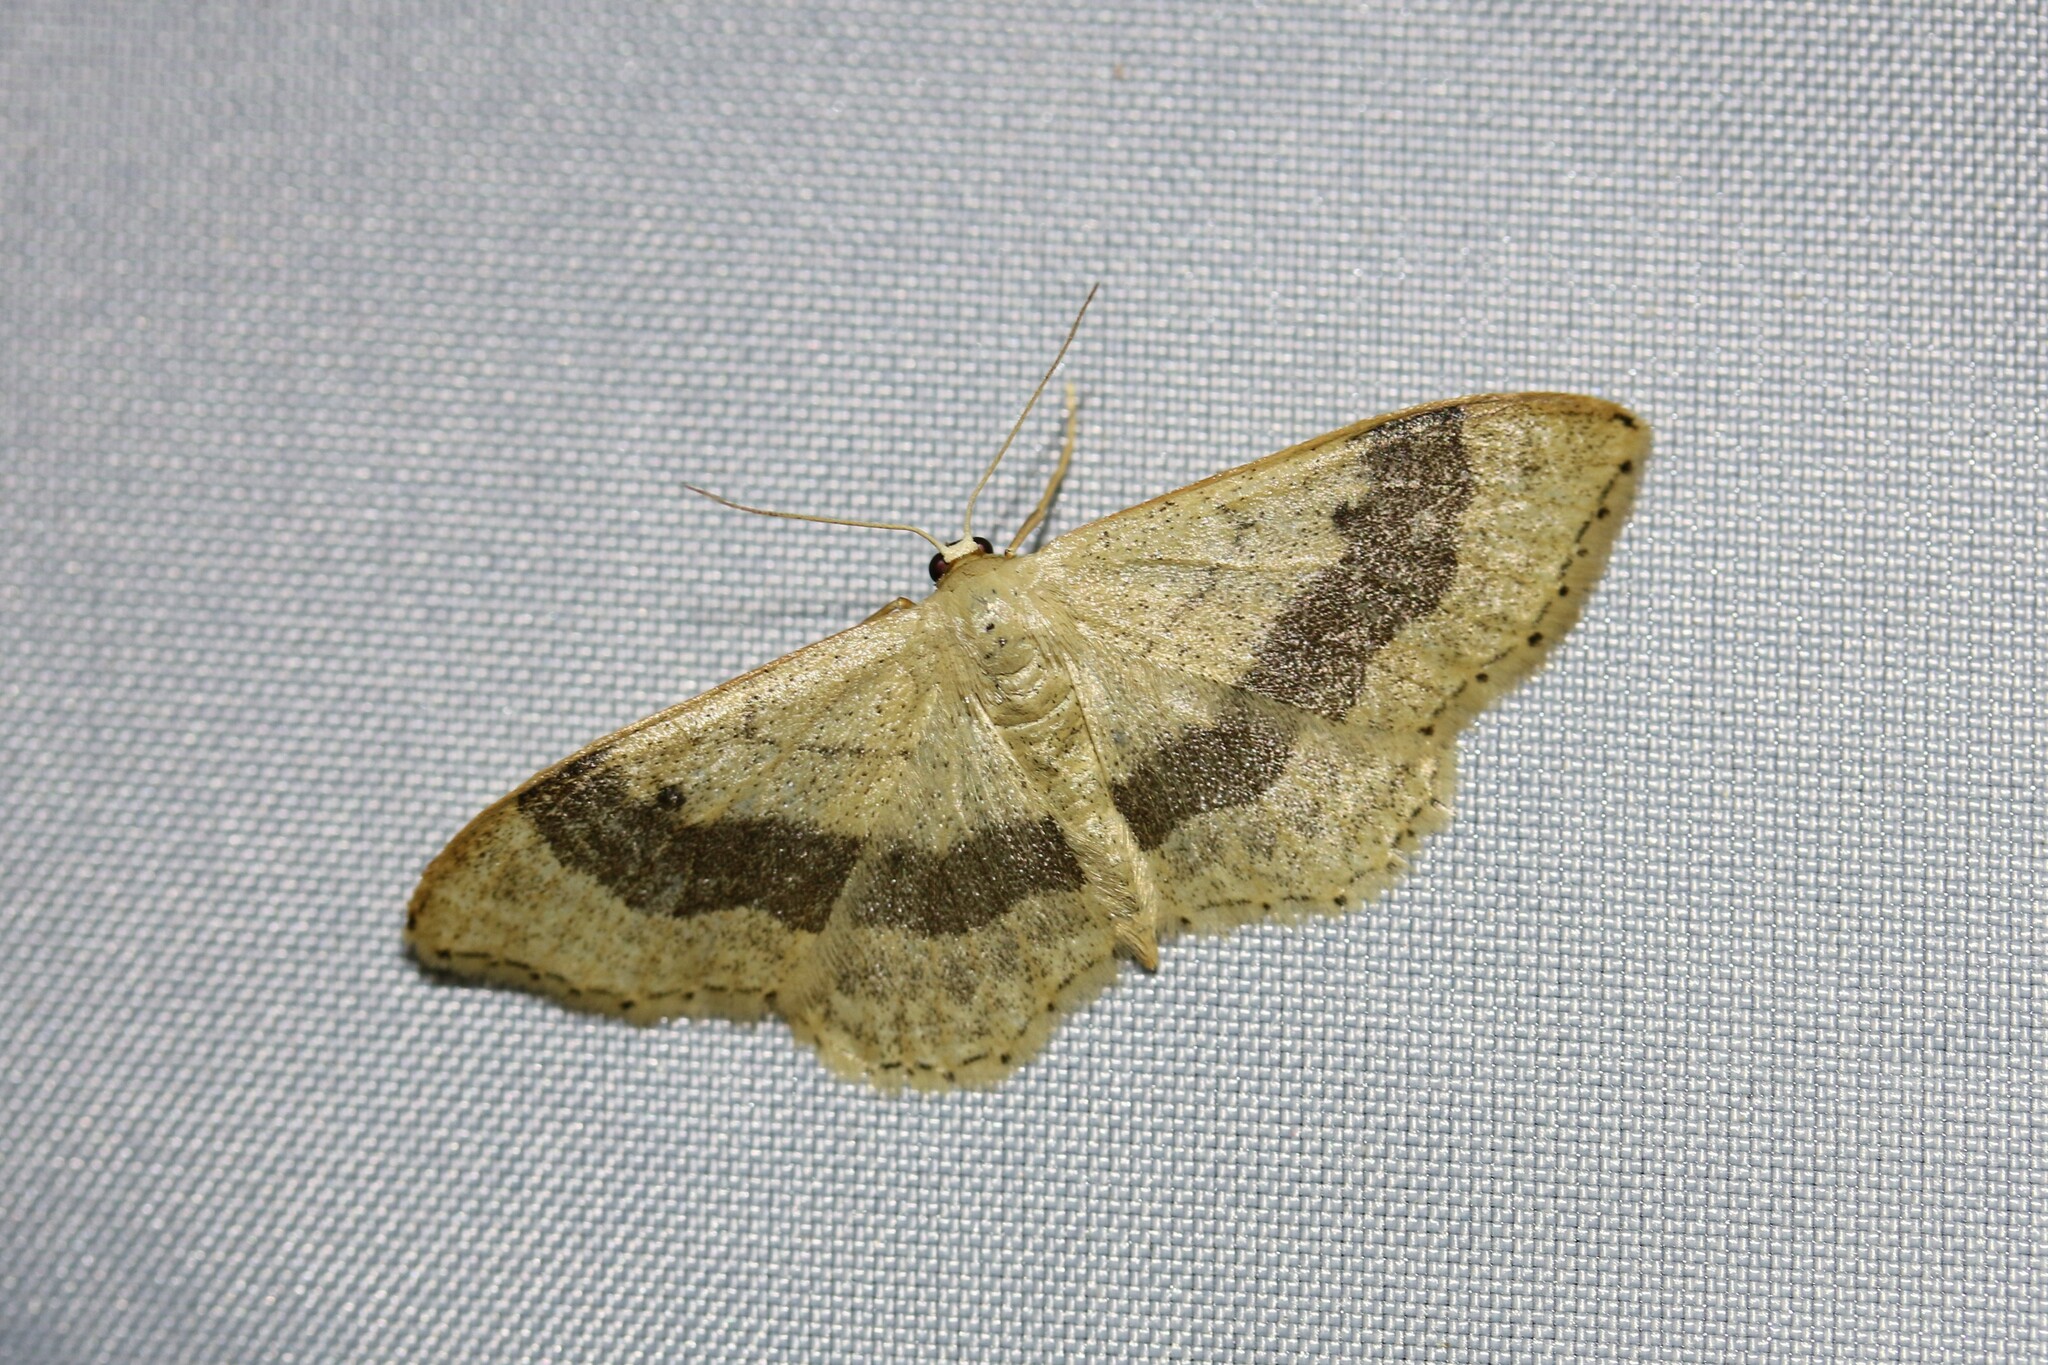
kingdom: Animalia
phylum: Arthropoda
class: Insecta
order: Lepidoptera
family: Geometridae
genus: Idaea
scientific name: Idaea aversata
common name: Riband wave
